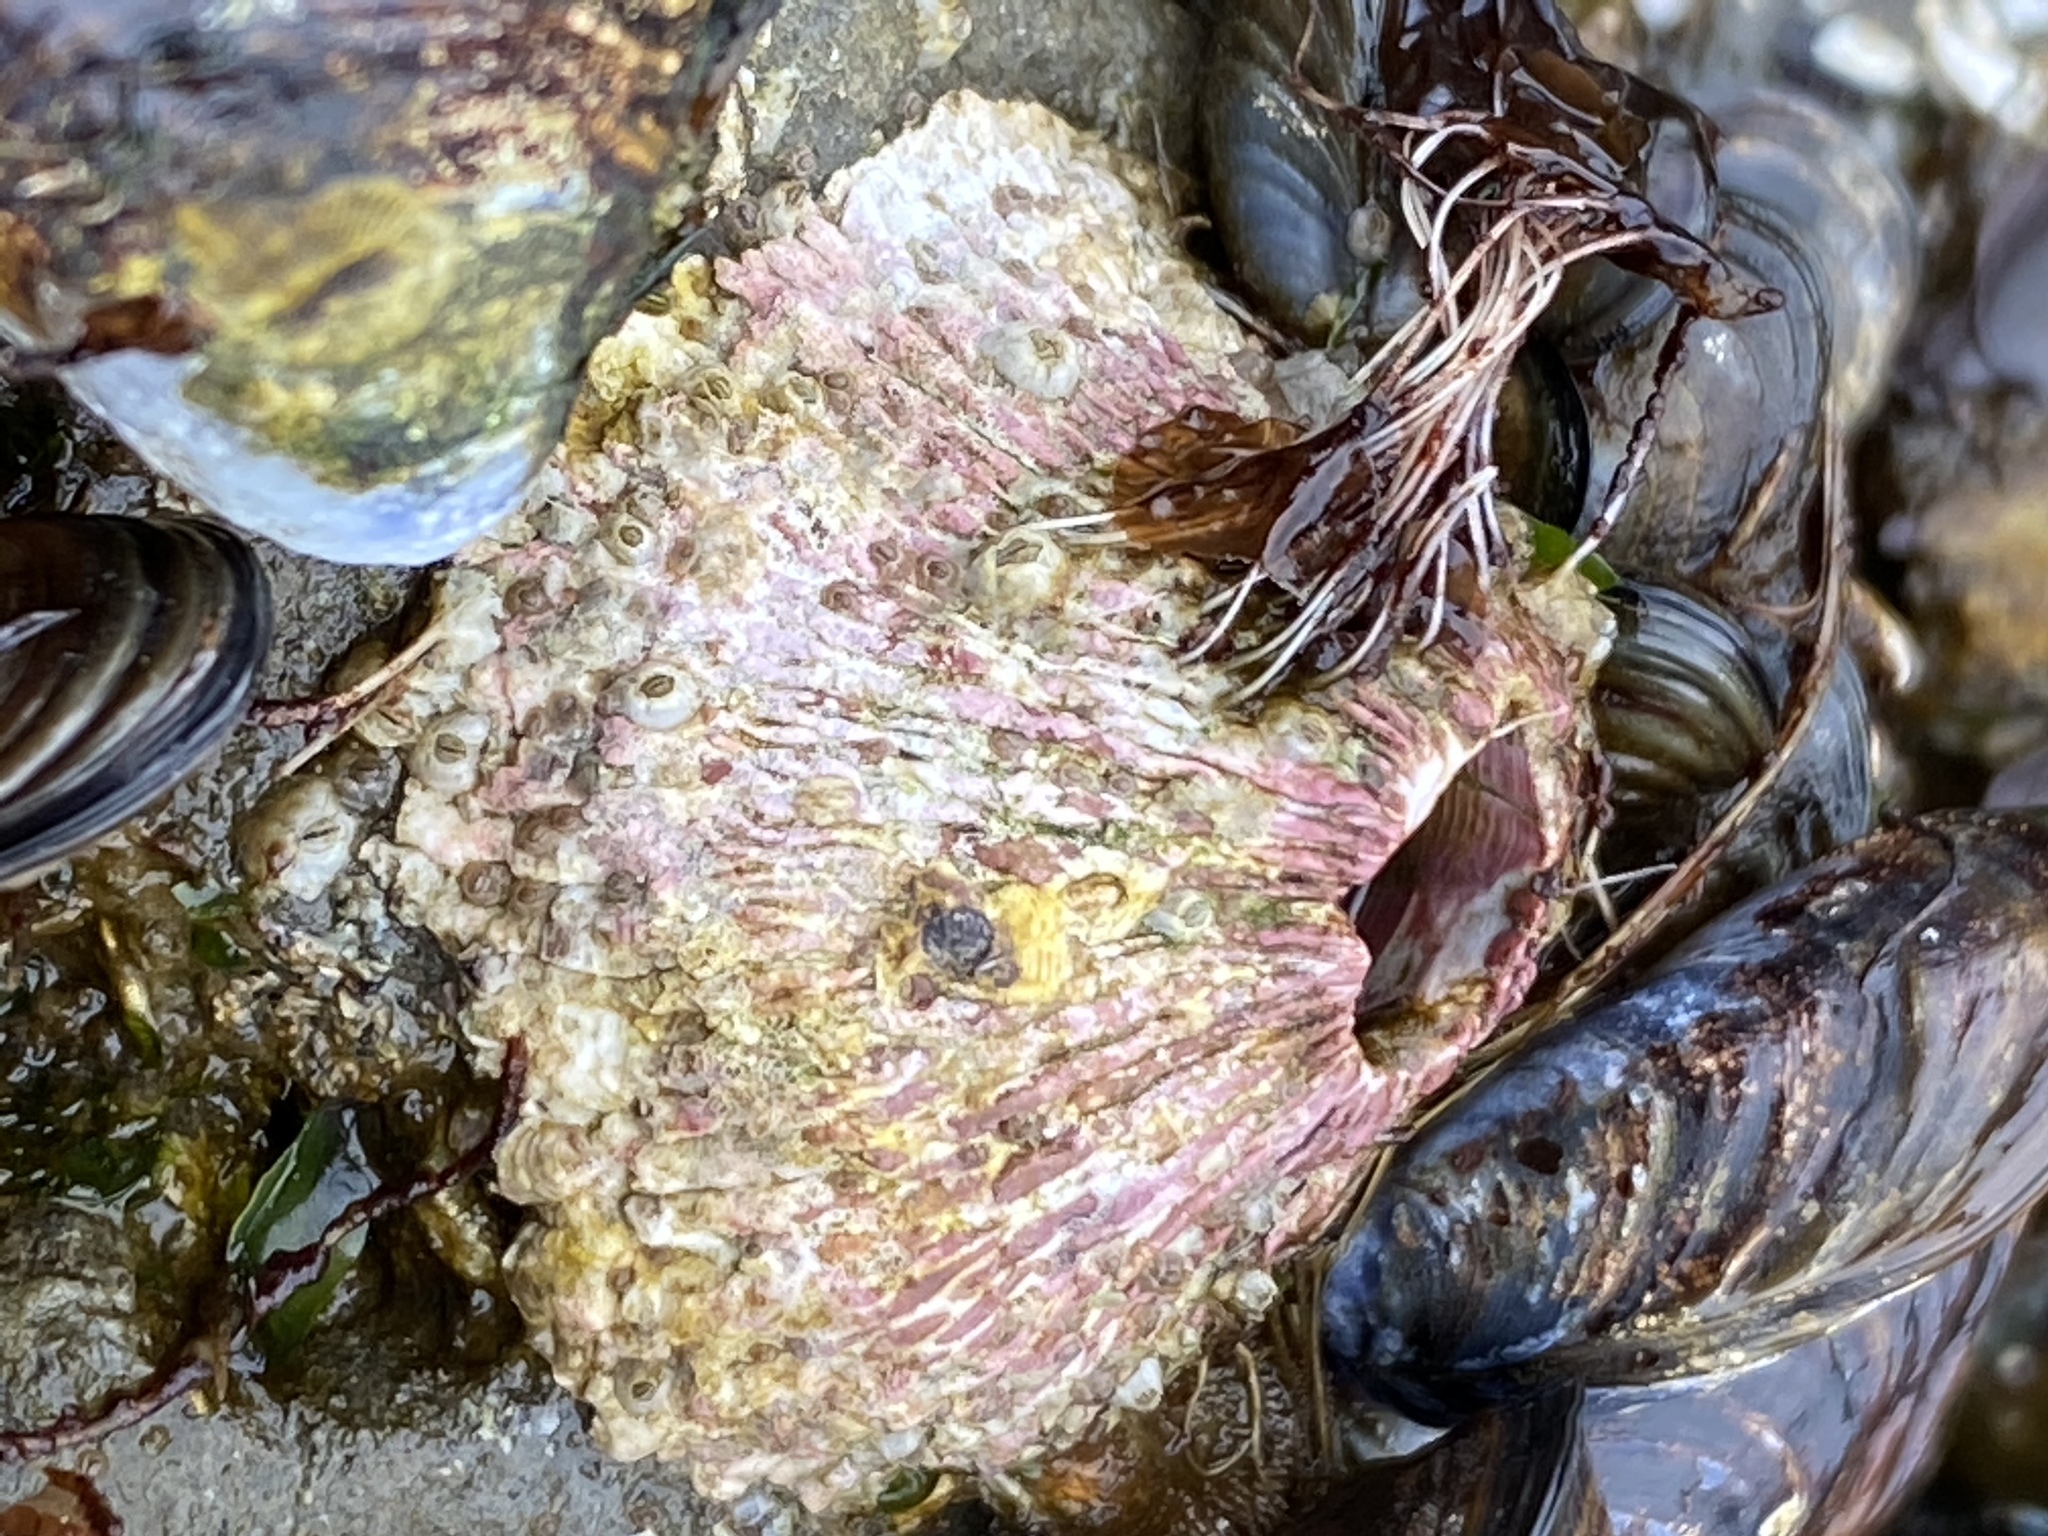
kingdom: Animalia
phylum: Arthropoda
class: Maxillopoda
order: Sessilia
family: Tetraclitidae
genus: Tetraclita
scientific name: Tetraclita rubescens
